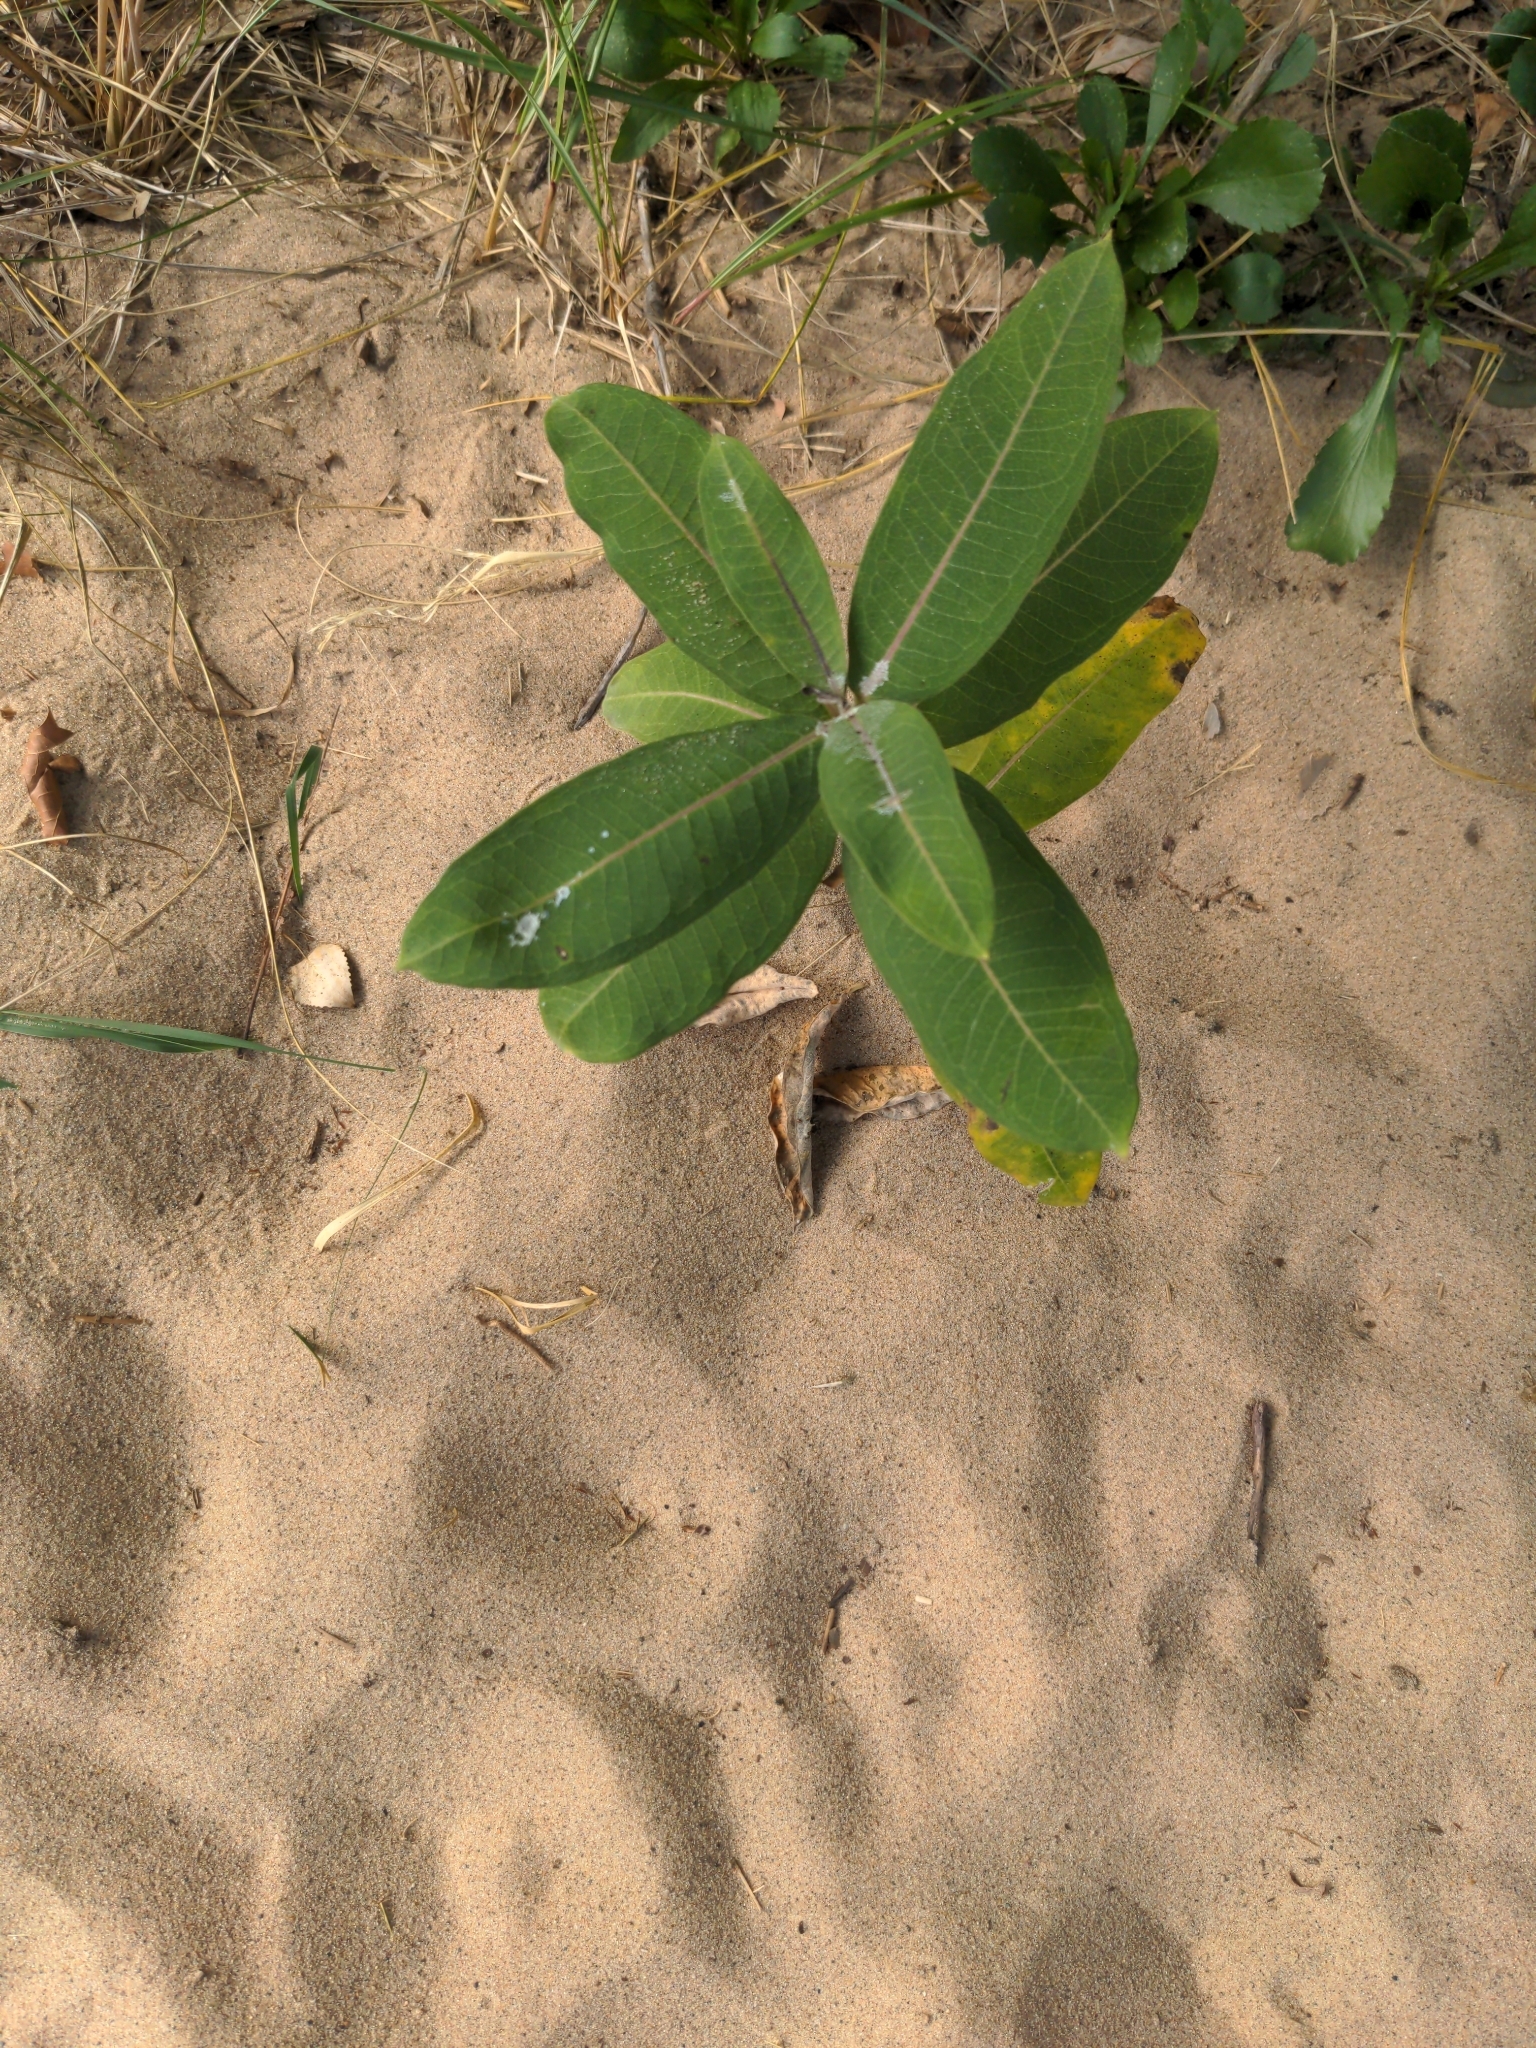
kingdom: Plantae
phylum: Tracheophyta
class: Magnoliopsida
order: Gentianales
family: Apocynaceae
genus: Asclepias
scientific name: Asclepias syriaca
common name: Common milkweed
